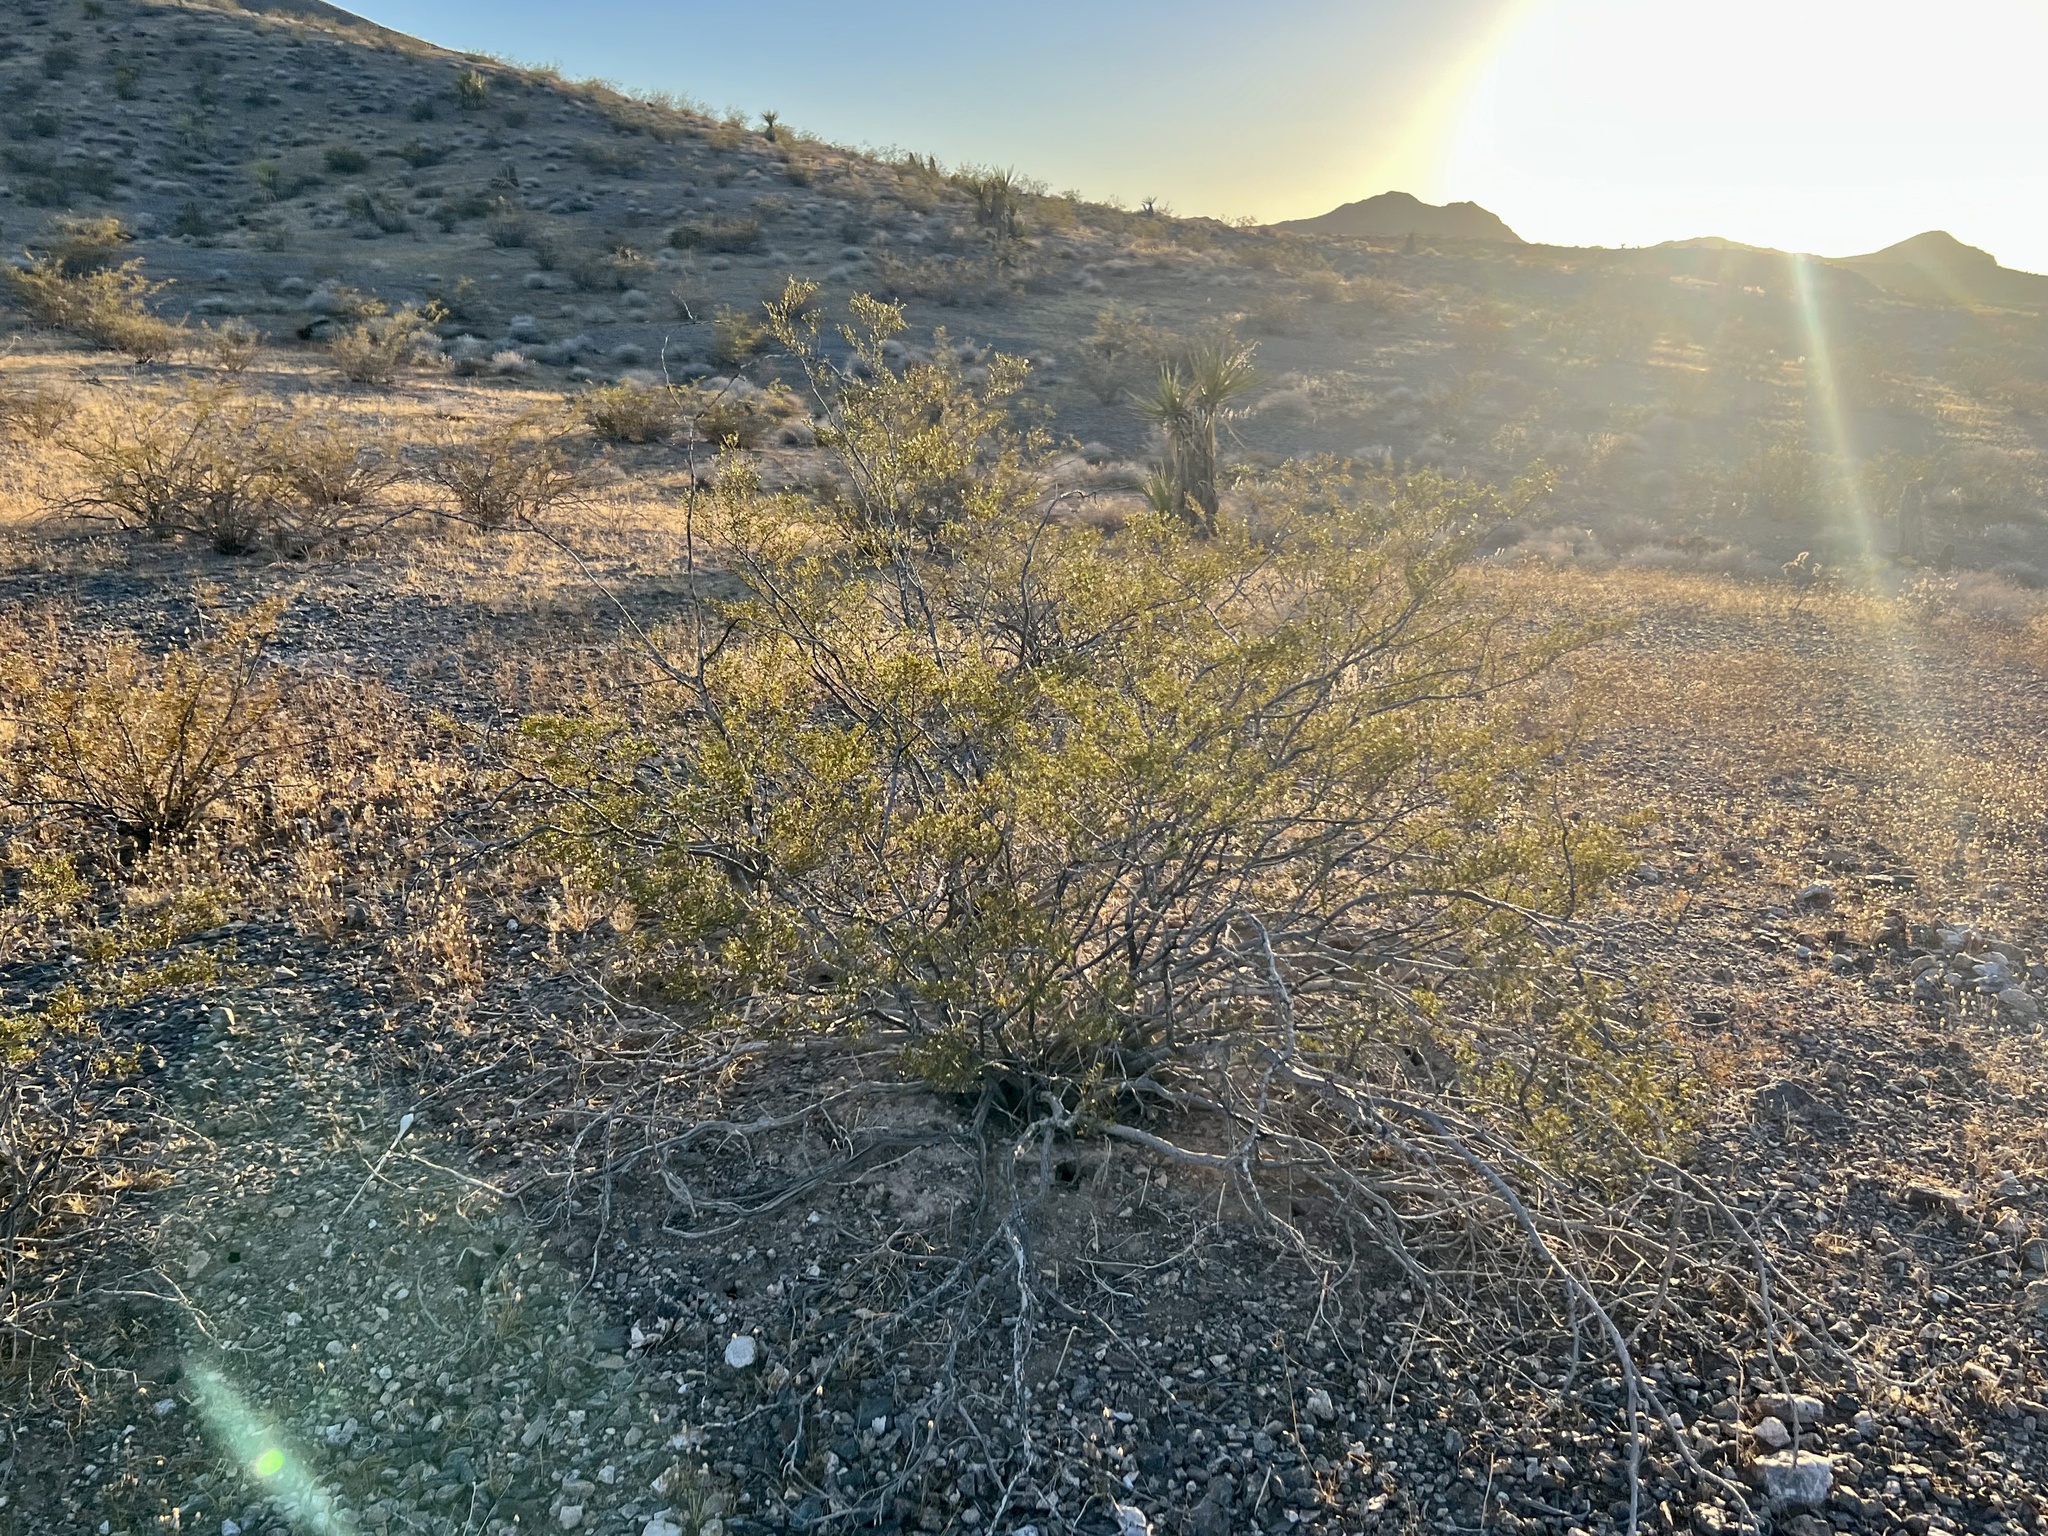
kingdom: Plantae
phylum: Tracheophyta
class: Magnoliopsida
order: Zygophyllales
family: Zygophyllaceae
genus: Larrea
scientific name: Larrea tridentata
